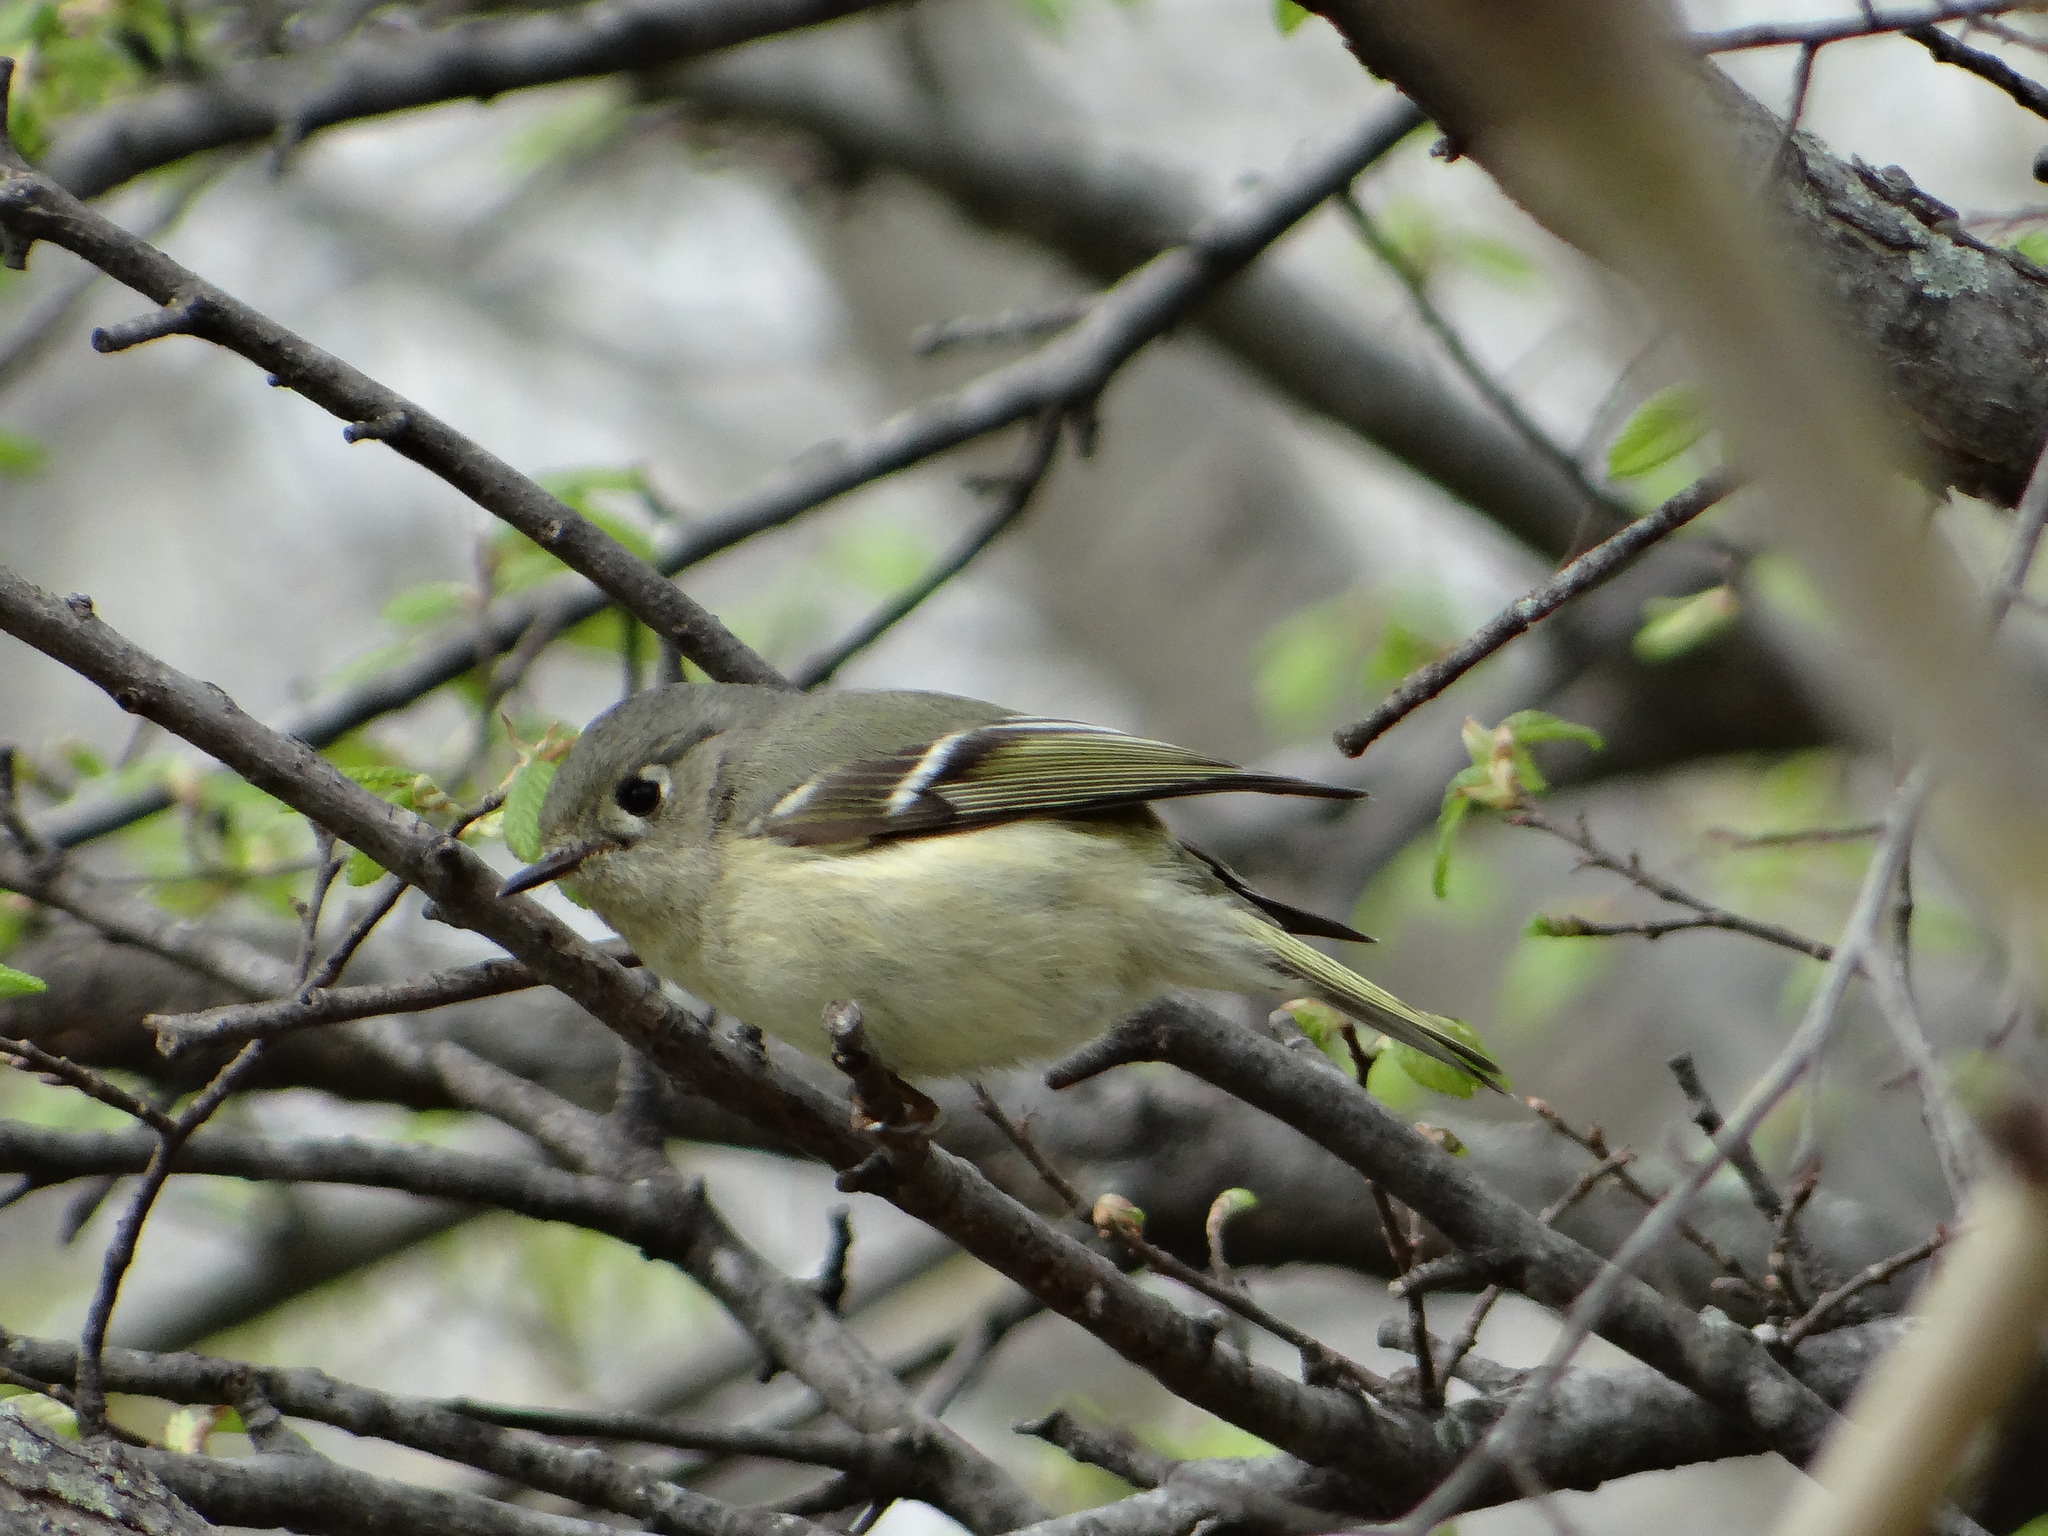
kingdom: Animalia
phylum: Chordata
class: Aves
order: Passeriformes
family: Regulidae
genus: Regulus
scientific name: Regulus calendula
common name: Ruby-crowned kinglet
